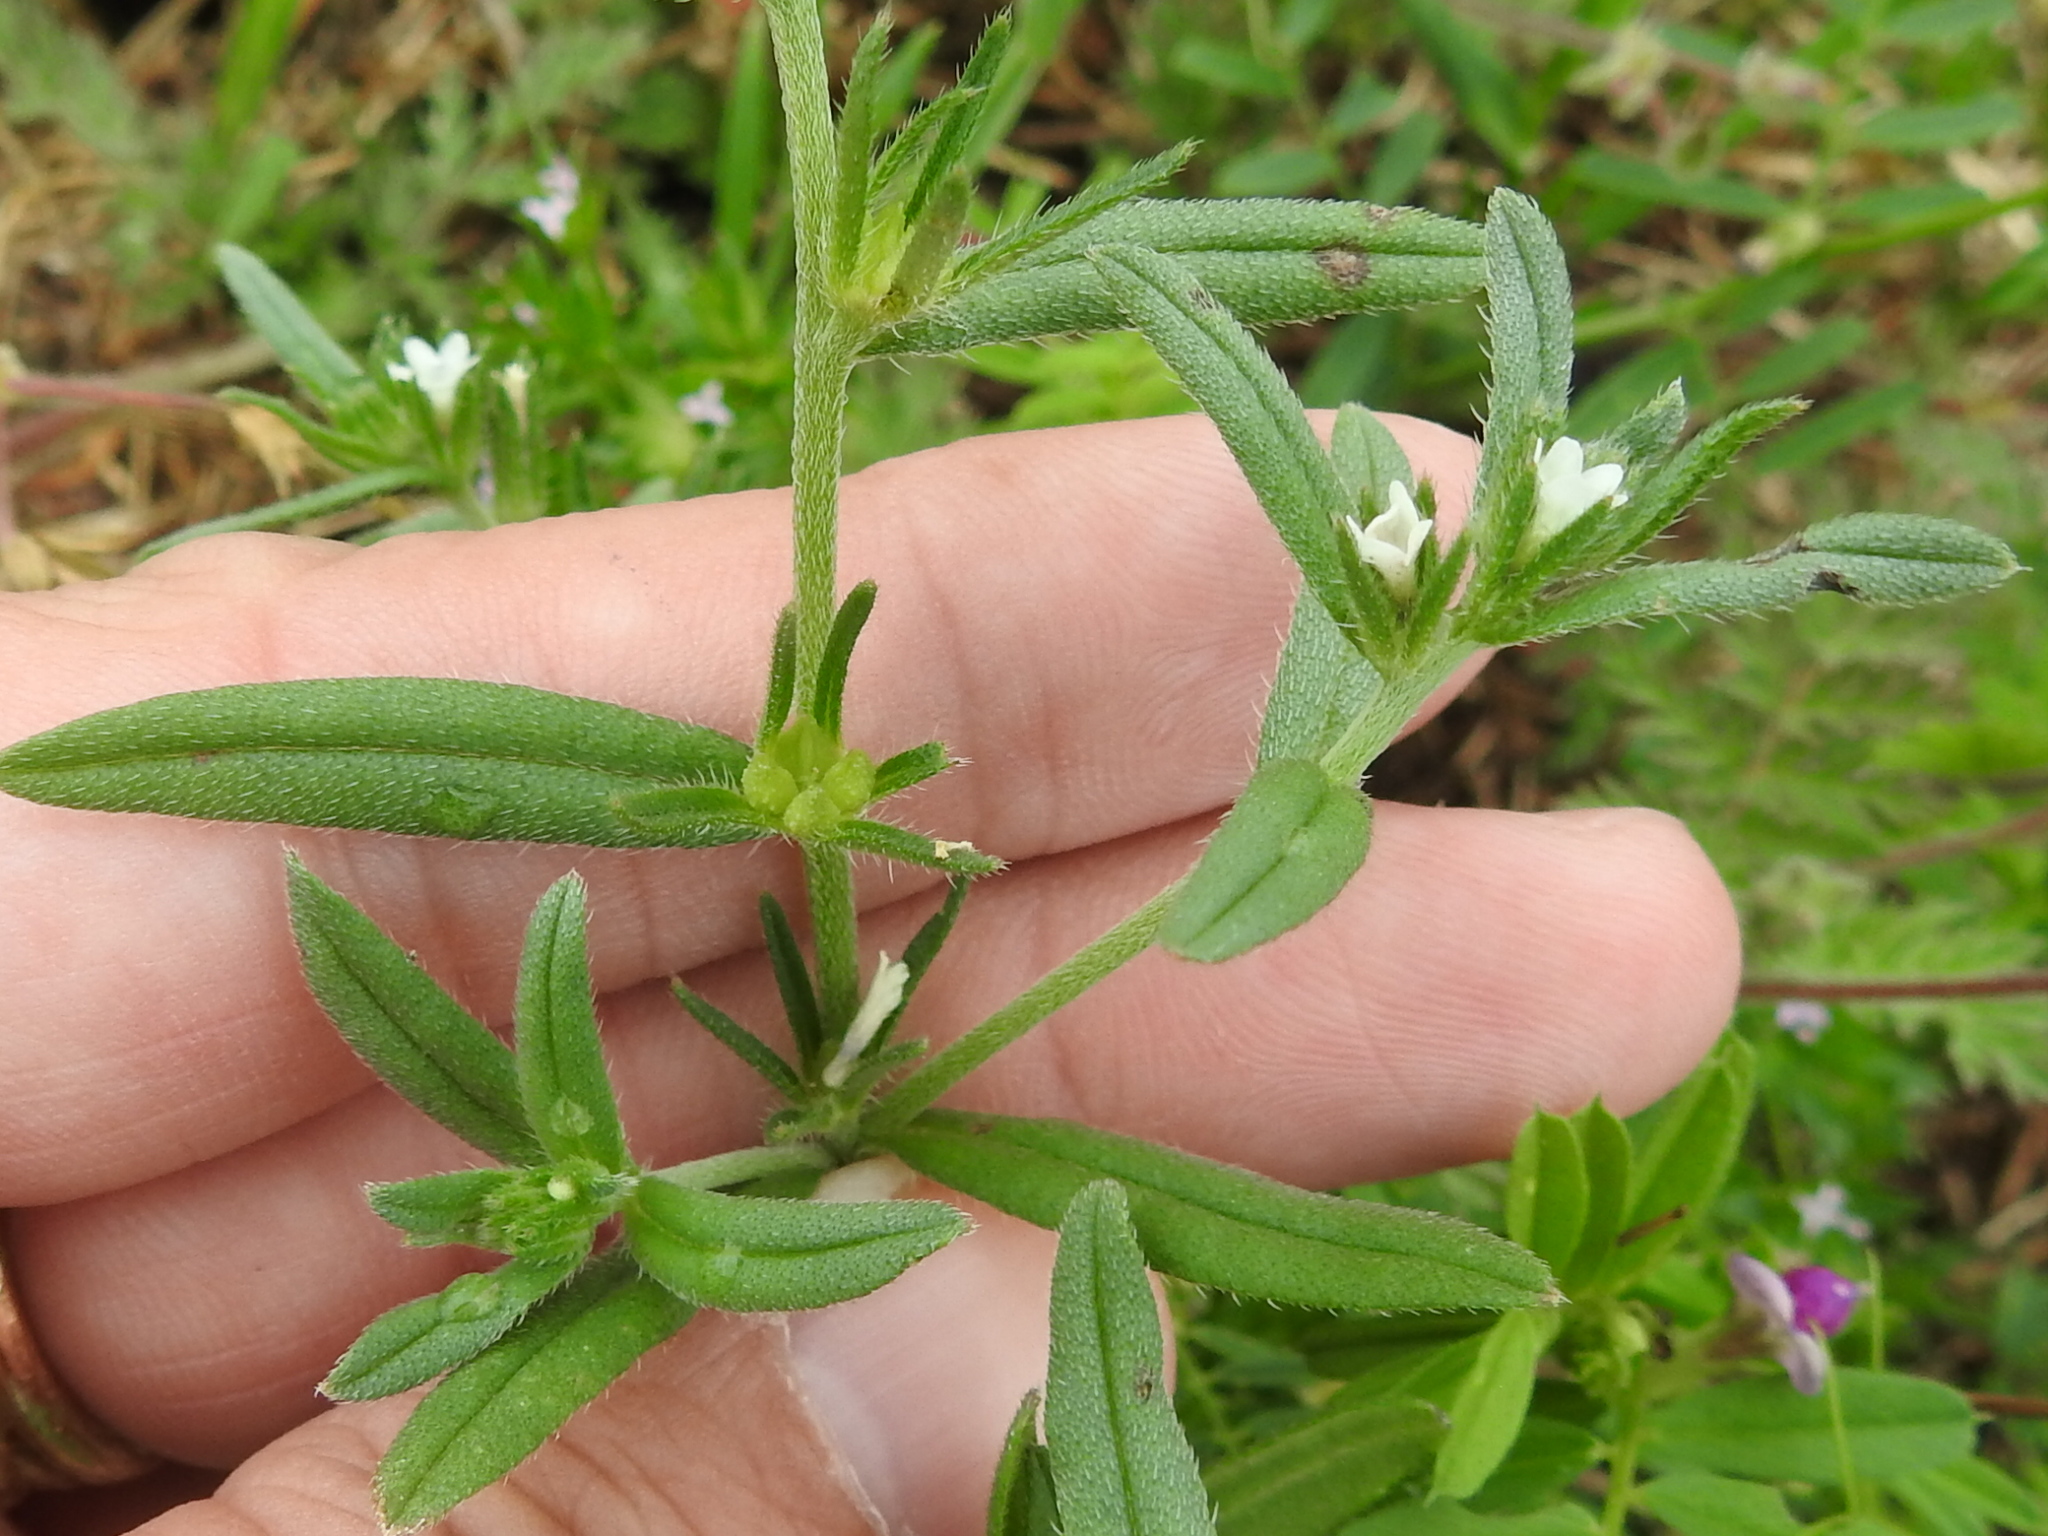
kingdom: Plantae
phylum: Tracheophyta
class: Magnoliopsida
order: Boraginales
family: Boraginaceae
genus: Buglossoides
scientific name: Buglossoides arvensis
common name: Corn gromwell
